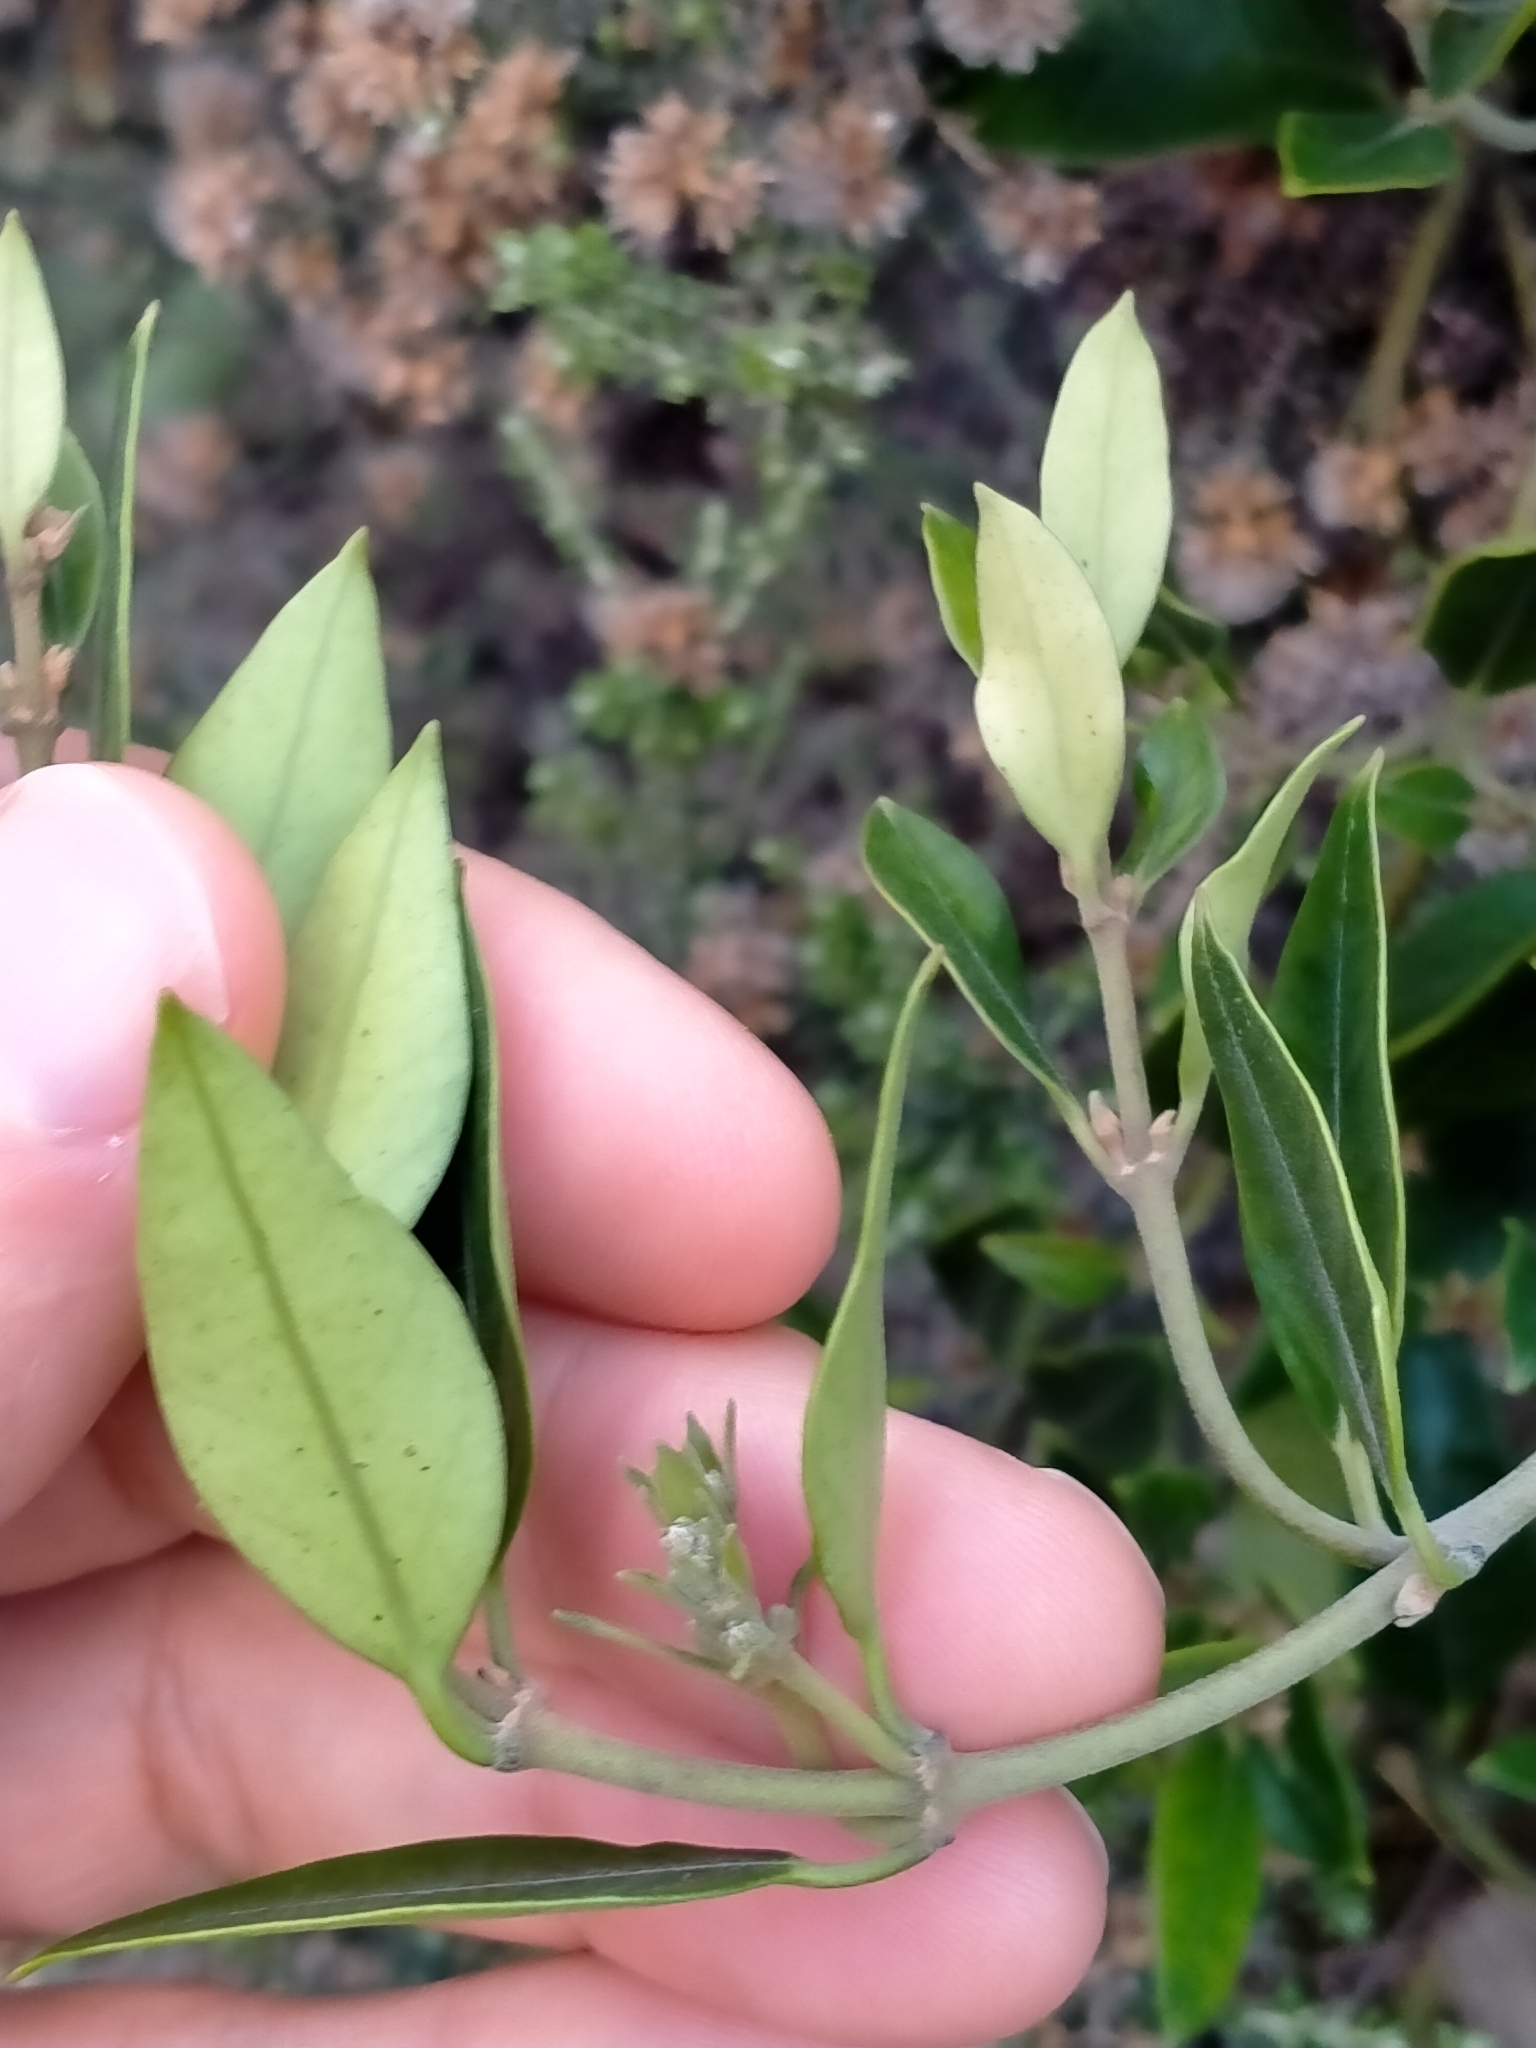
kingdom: Plantae
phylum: Tracheophyta
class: Magnoliopsida
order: Gentianales
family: Apocynaceae
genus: Parsonsia
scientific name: Parsonsia heterophylla
